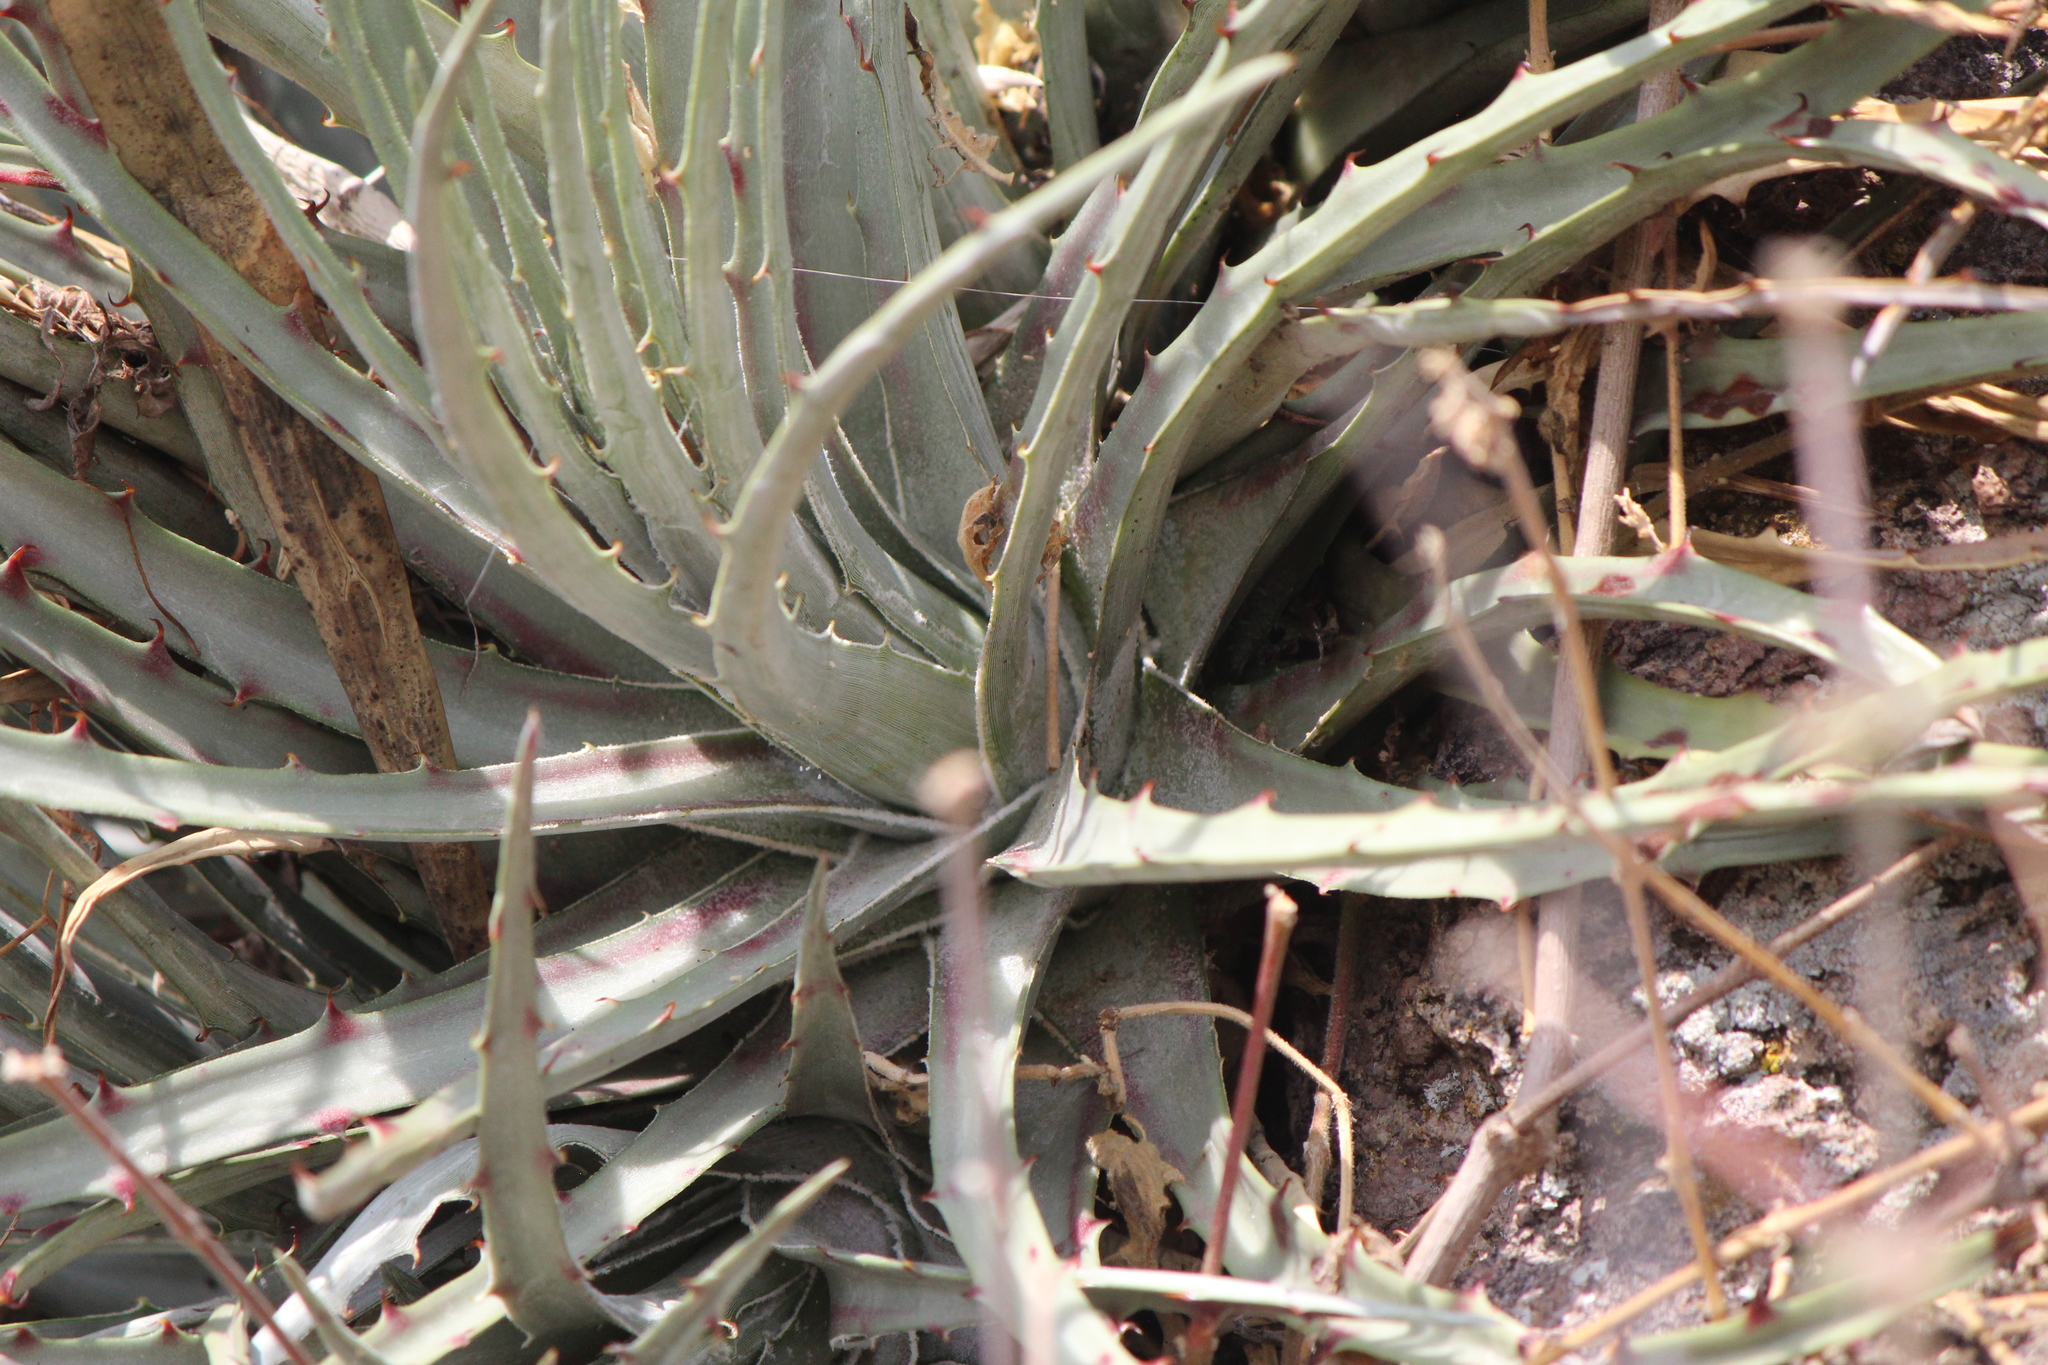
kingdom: Plantae
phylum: Tracheophyta
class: Liliopsida
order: Poales
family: Bromeliaceae
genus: Hechtia
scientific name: Hechtia podantha
